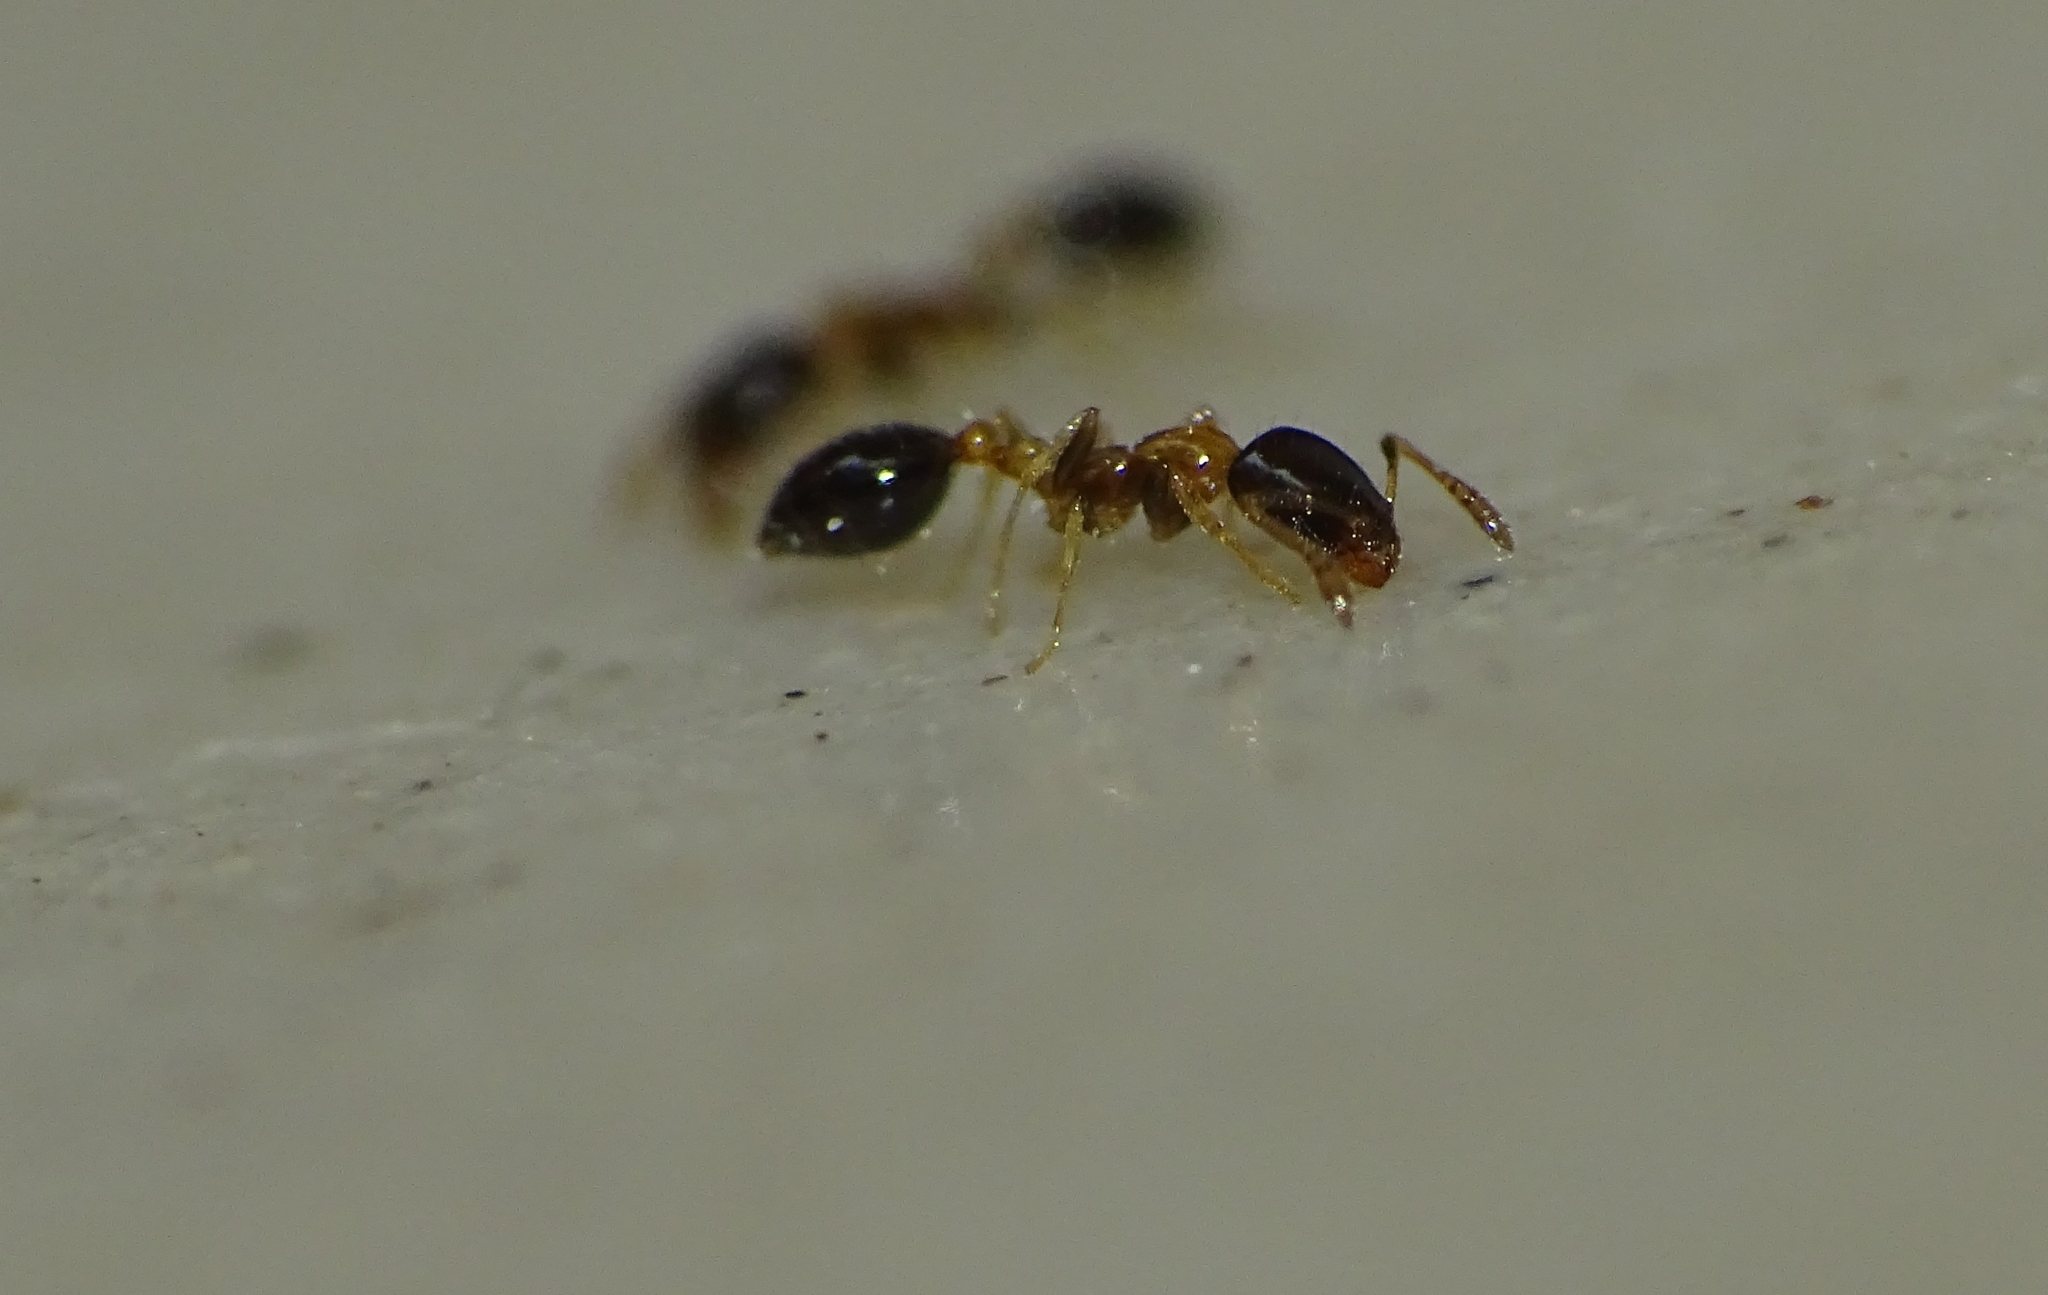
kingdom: Animalia
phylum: Arthropoda
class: Insecta
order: Hymenoptera
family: Formicidae
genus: Monomorium
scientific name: Monomorium floricola
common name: Bicolored trailing ant
